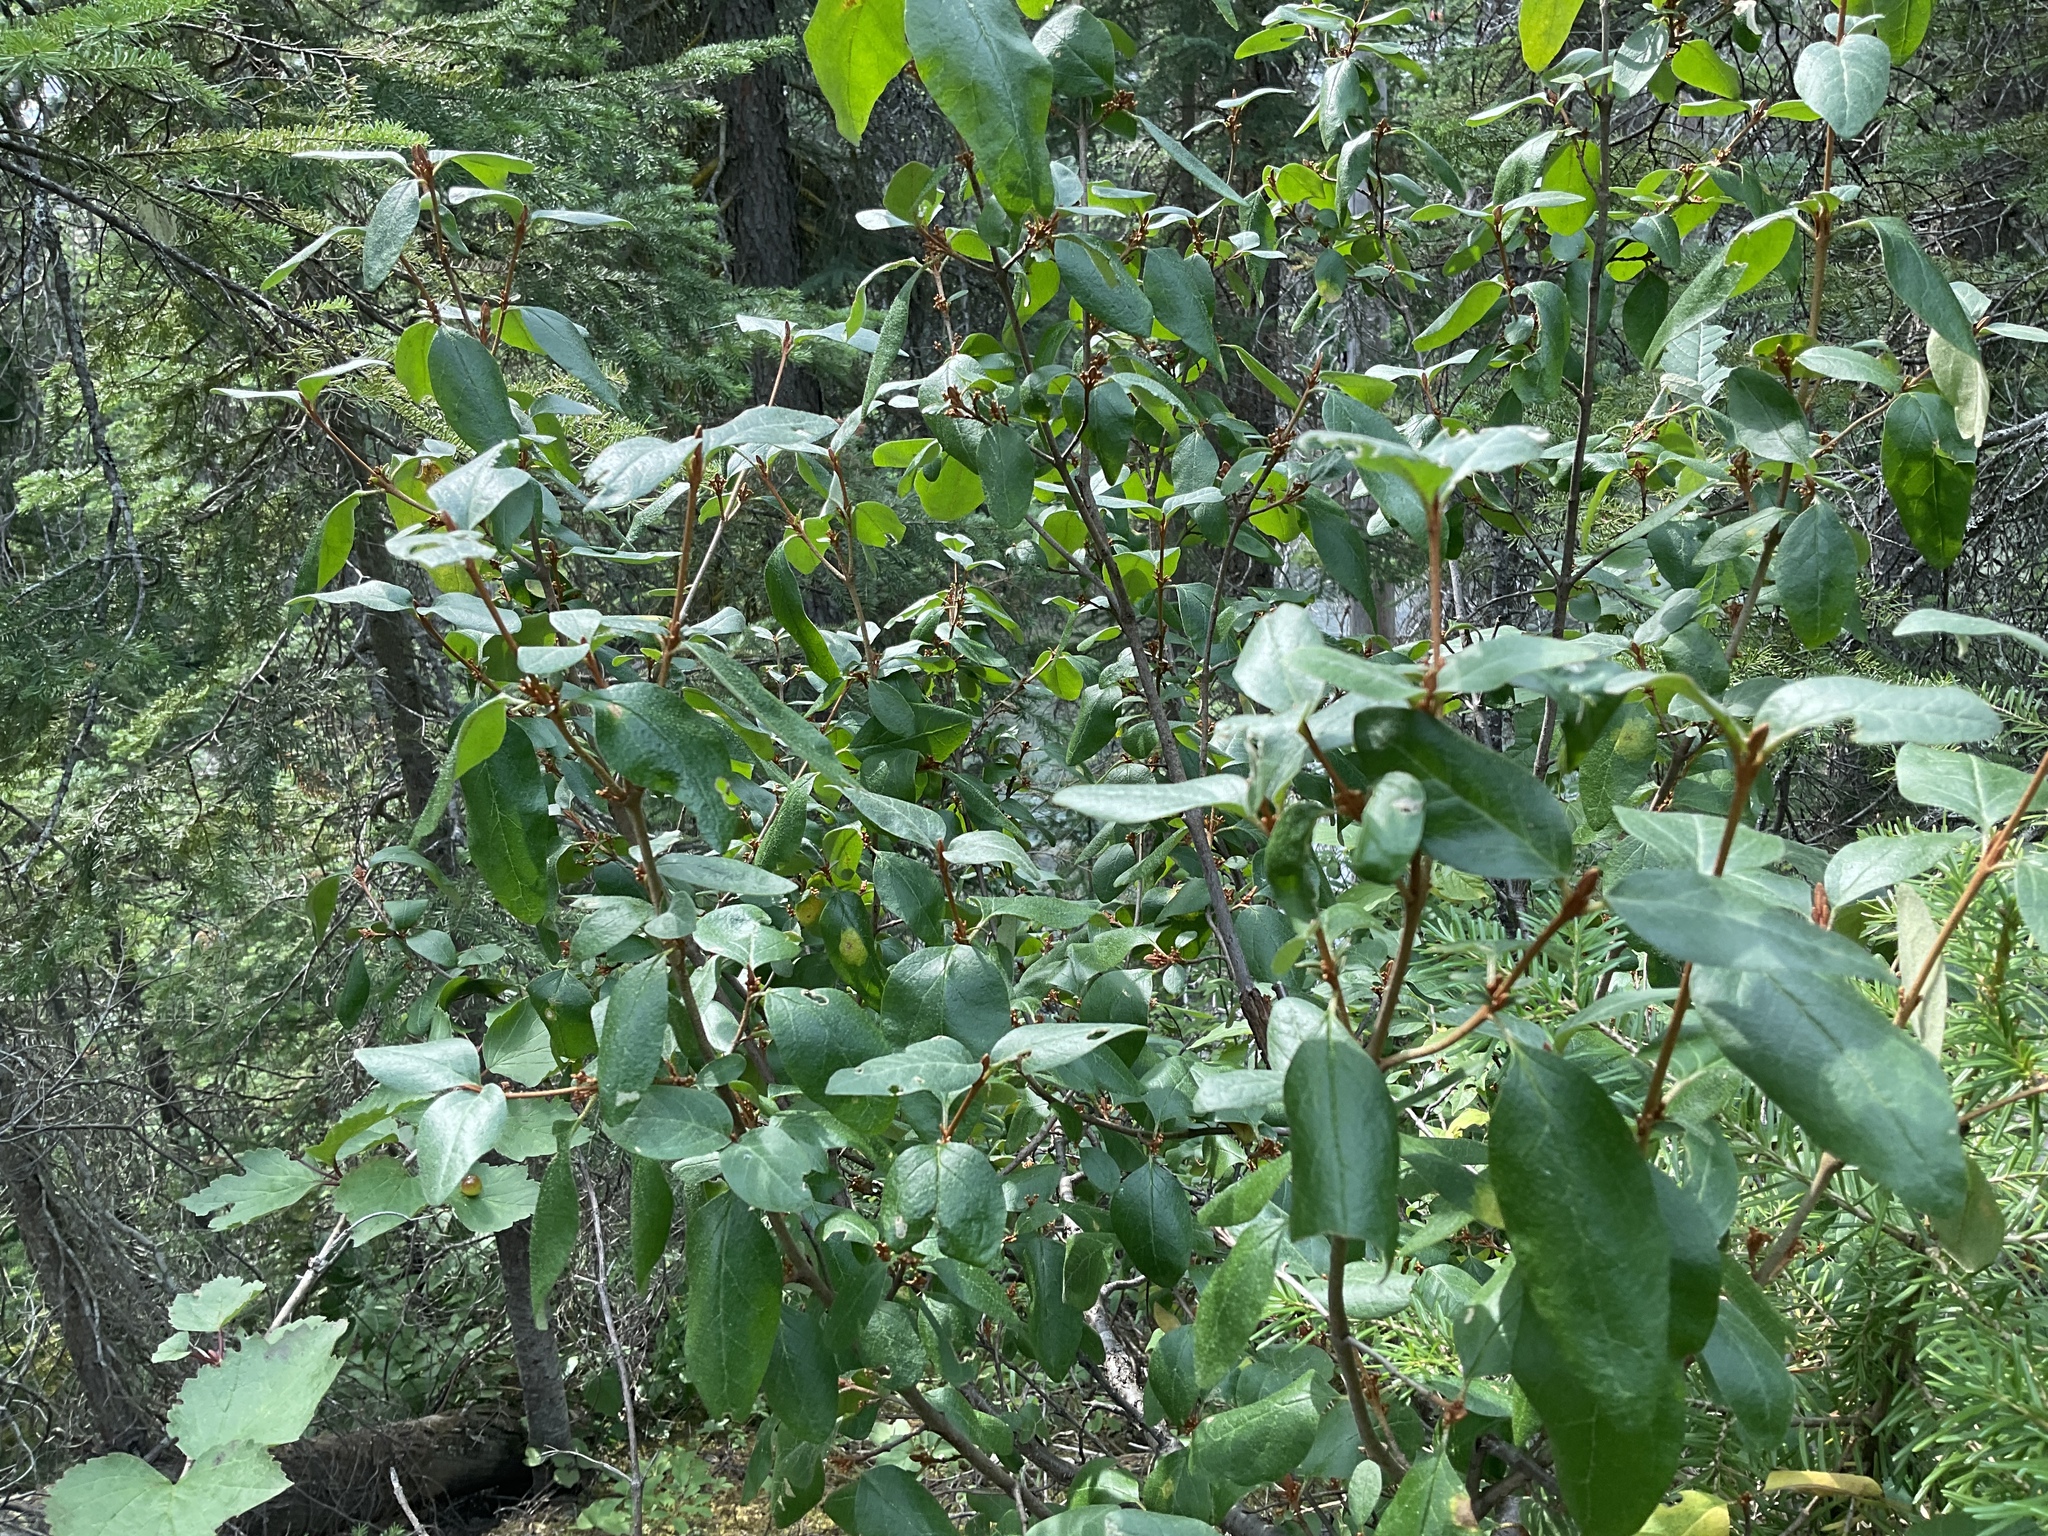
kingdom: Plantae
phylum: Tracheophyta
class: Magnoliopsida
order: Rosales
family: Elaeagnaceae
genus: Shepherdia
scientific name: Shepherdia canadensis
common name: Soapberry
